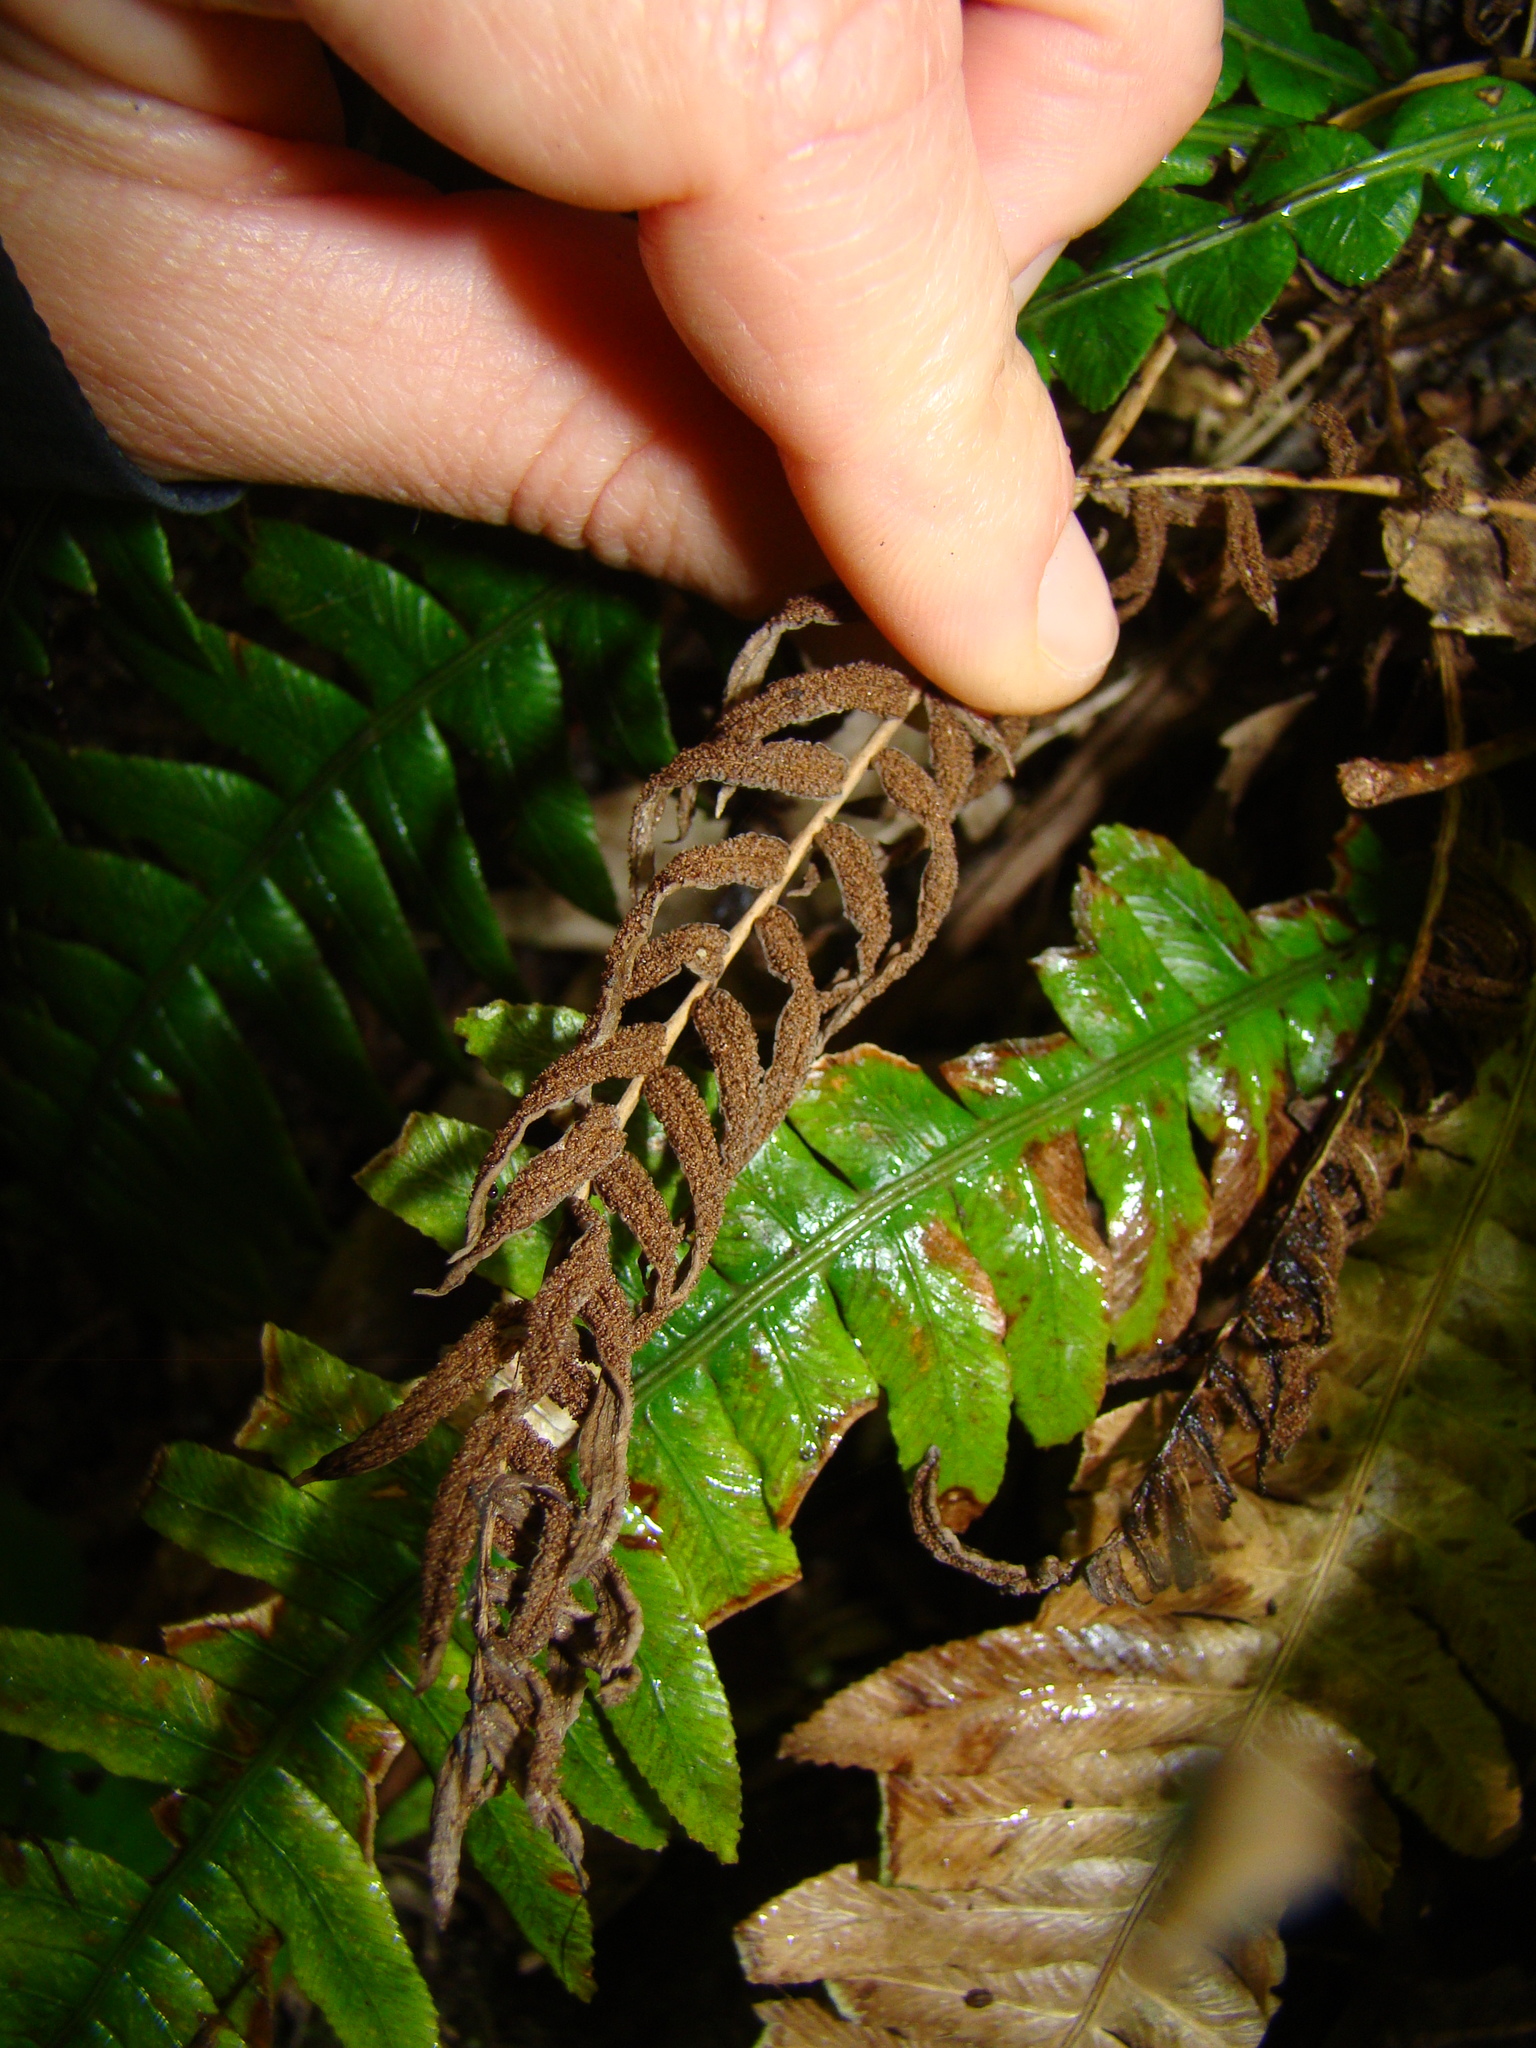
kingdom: Plantae
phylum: Tracheophyta
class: Polypodiopsida
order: Polypodiales
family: Blechnaceae
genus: Austroblechnum
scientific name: Austroblechnum lanceolatum
